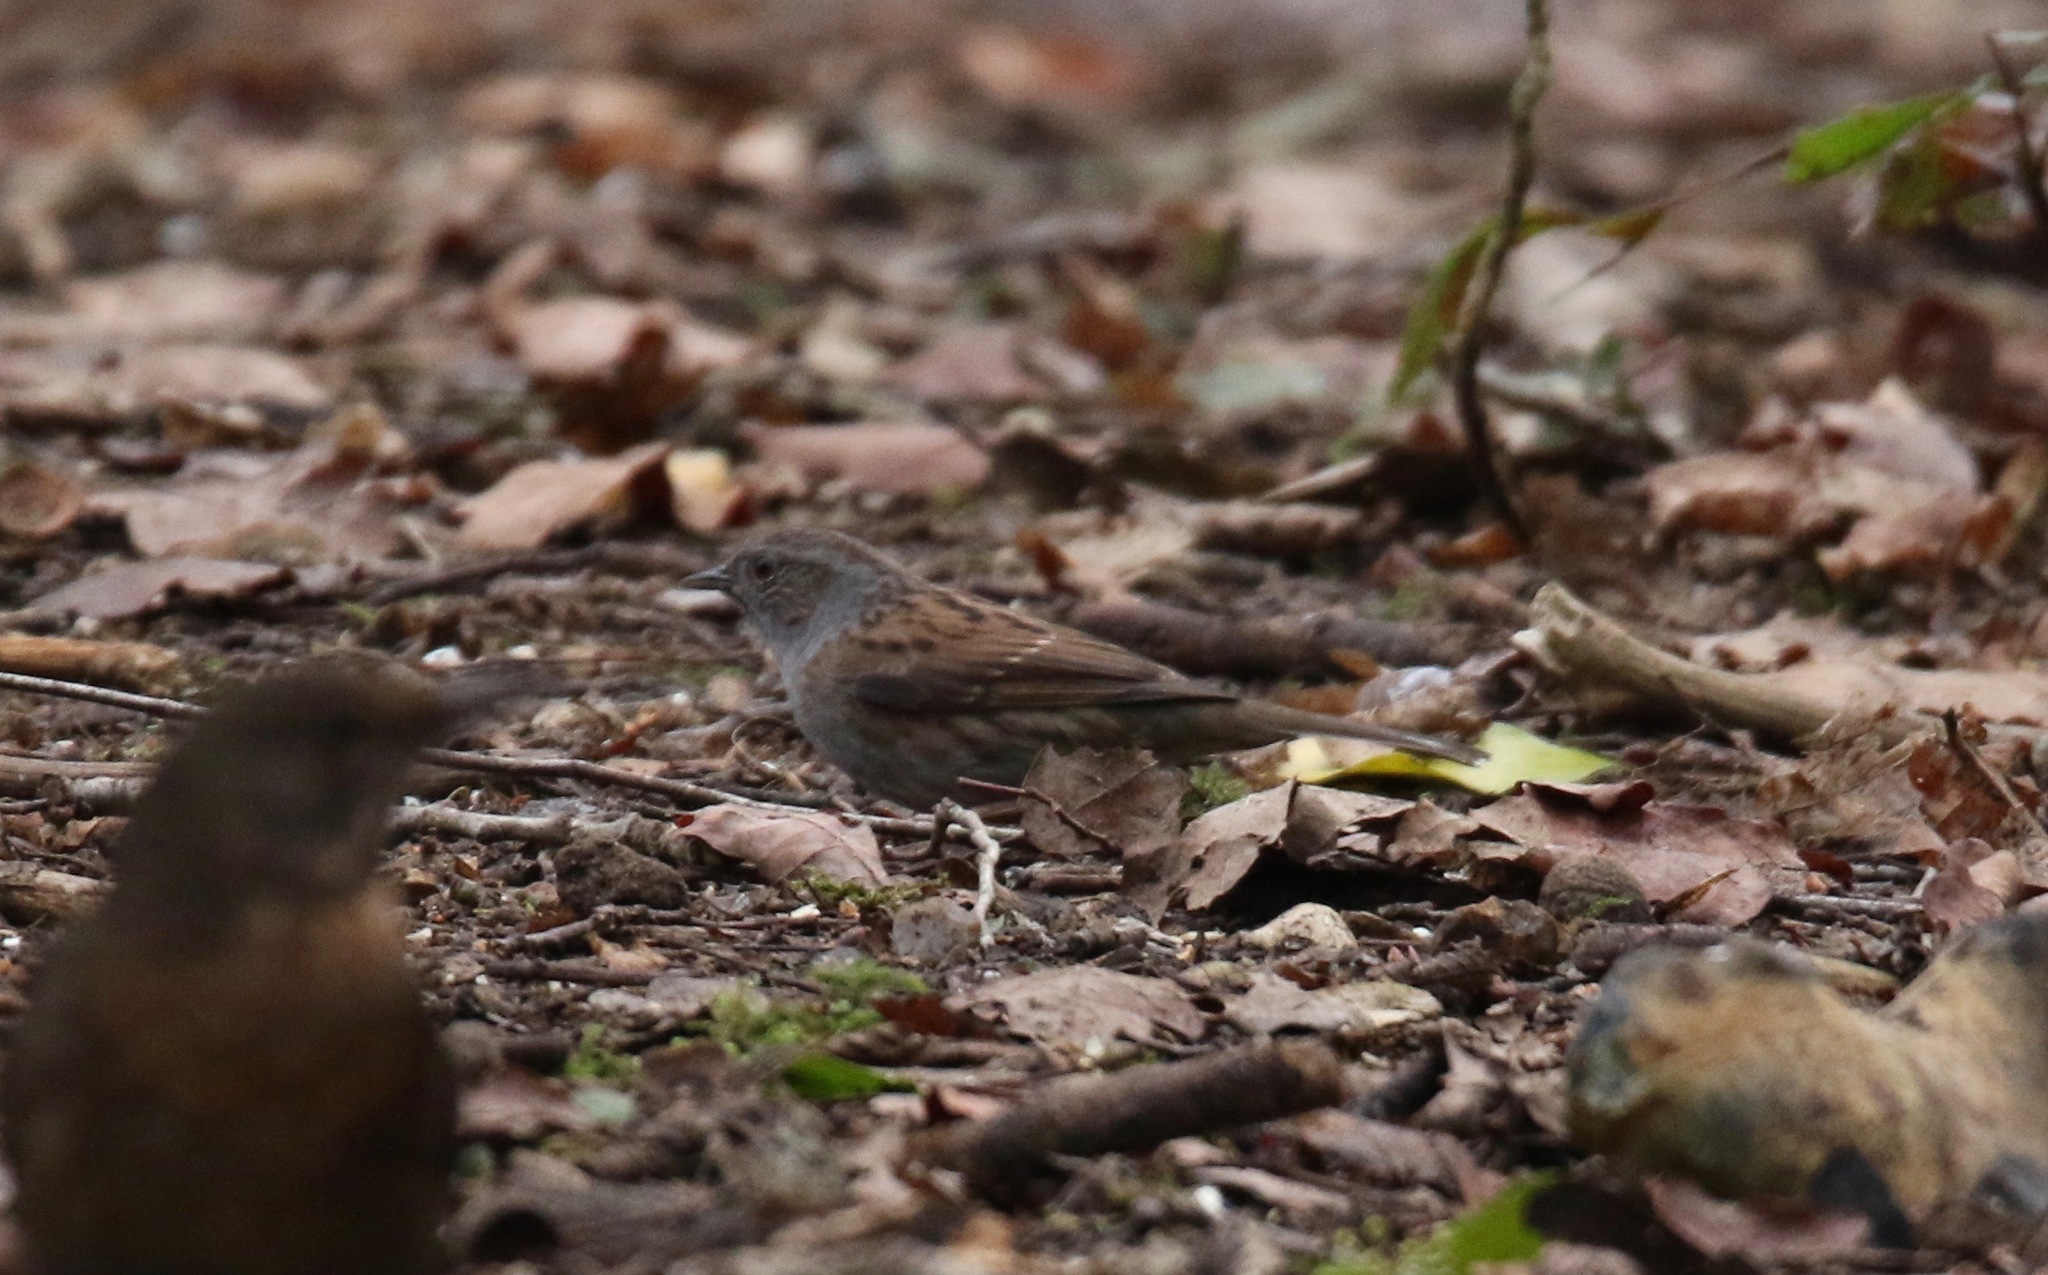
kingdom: Animalia
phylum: Chordata
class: Aves
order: Passeriformes
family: Prunellidae
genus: Prunella
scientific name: Prunella modularis
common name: Dunnock
